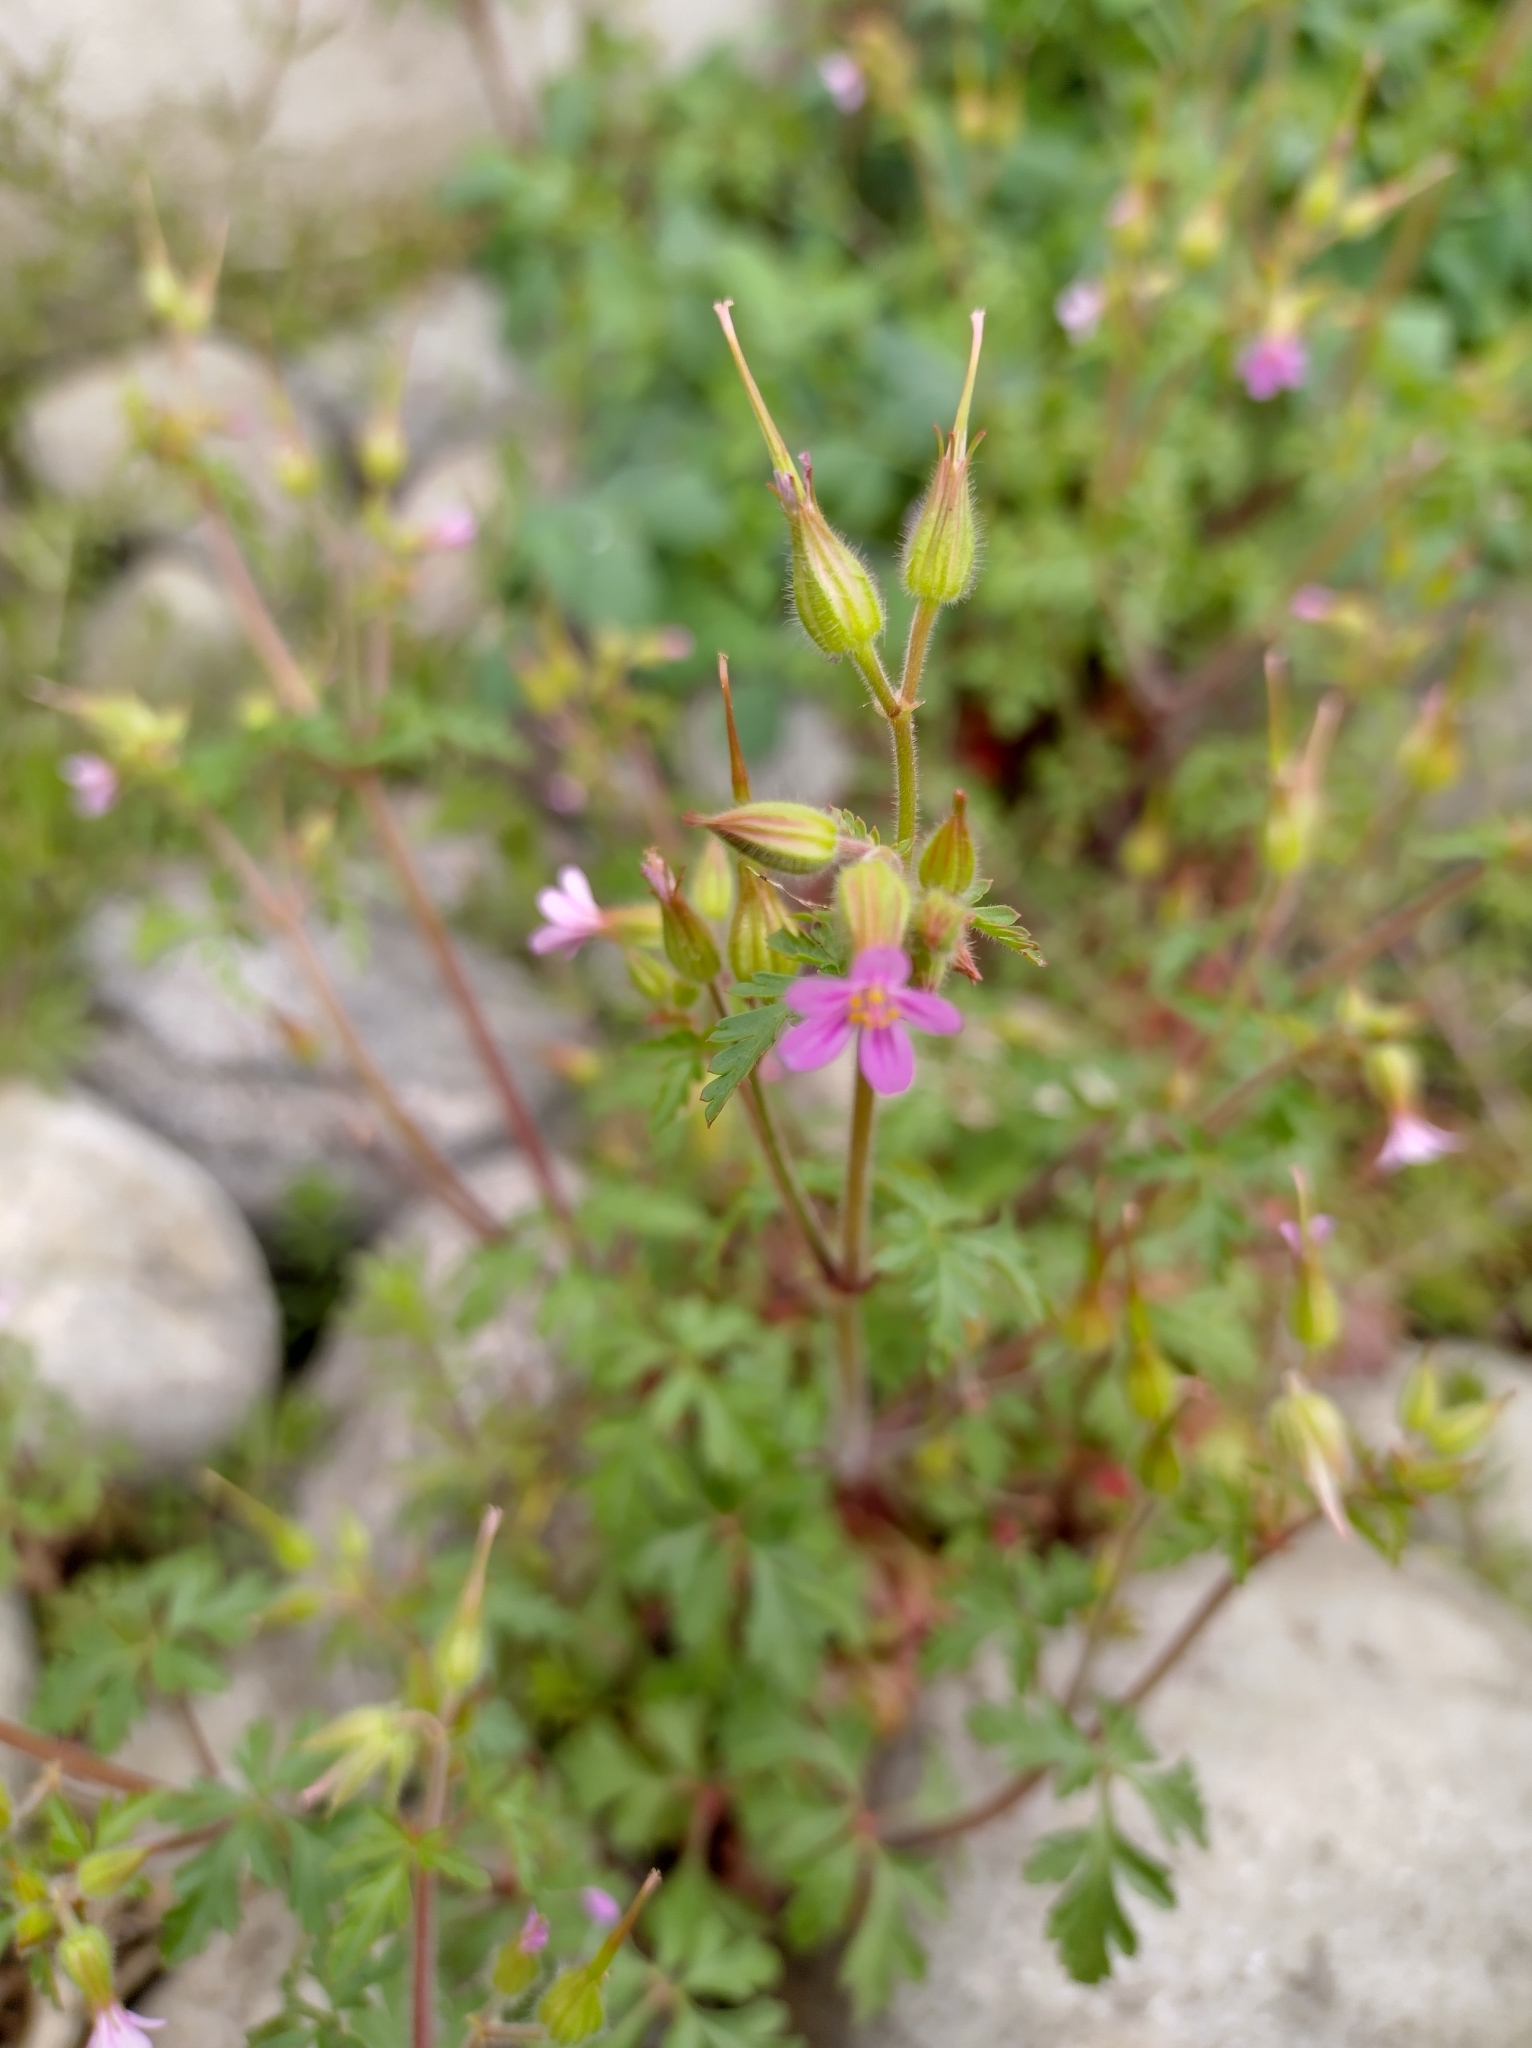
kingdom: Plantae
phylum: Tracheophyta
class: Magnoliopsida
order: Geraniales
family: Geraniaceae
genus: Geranium
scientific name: Geranium purpureum
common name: Little-robin
